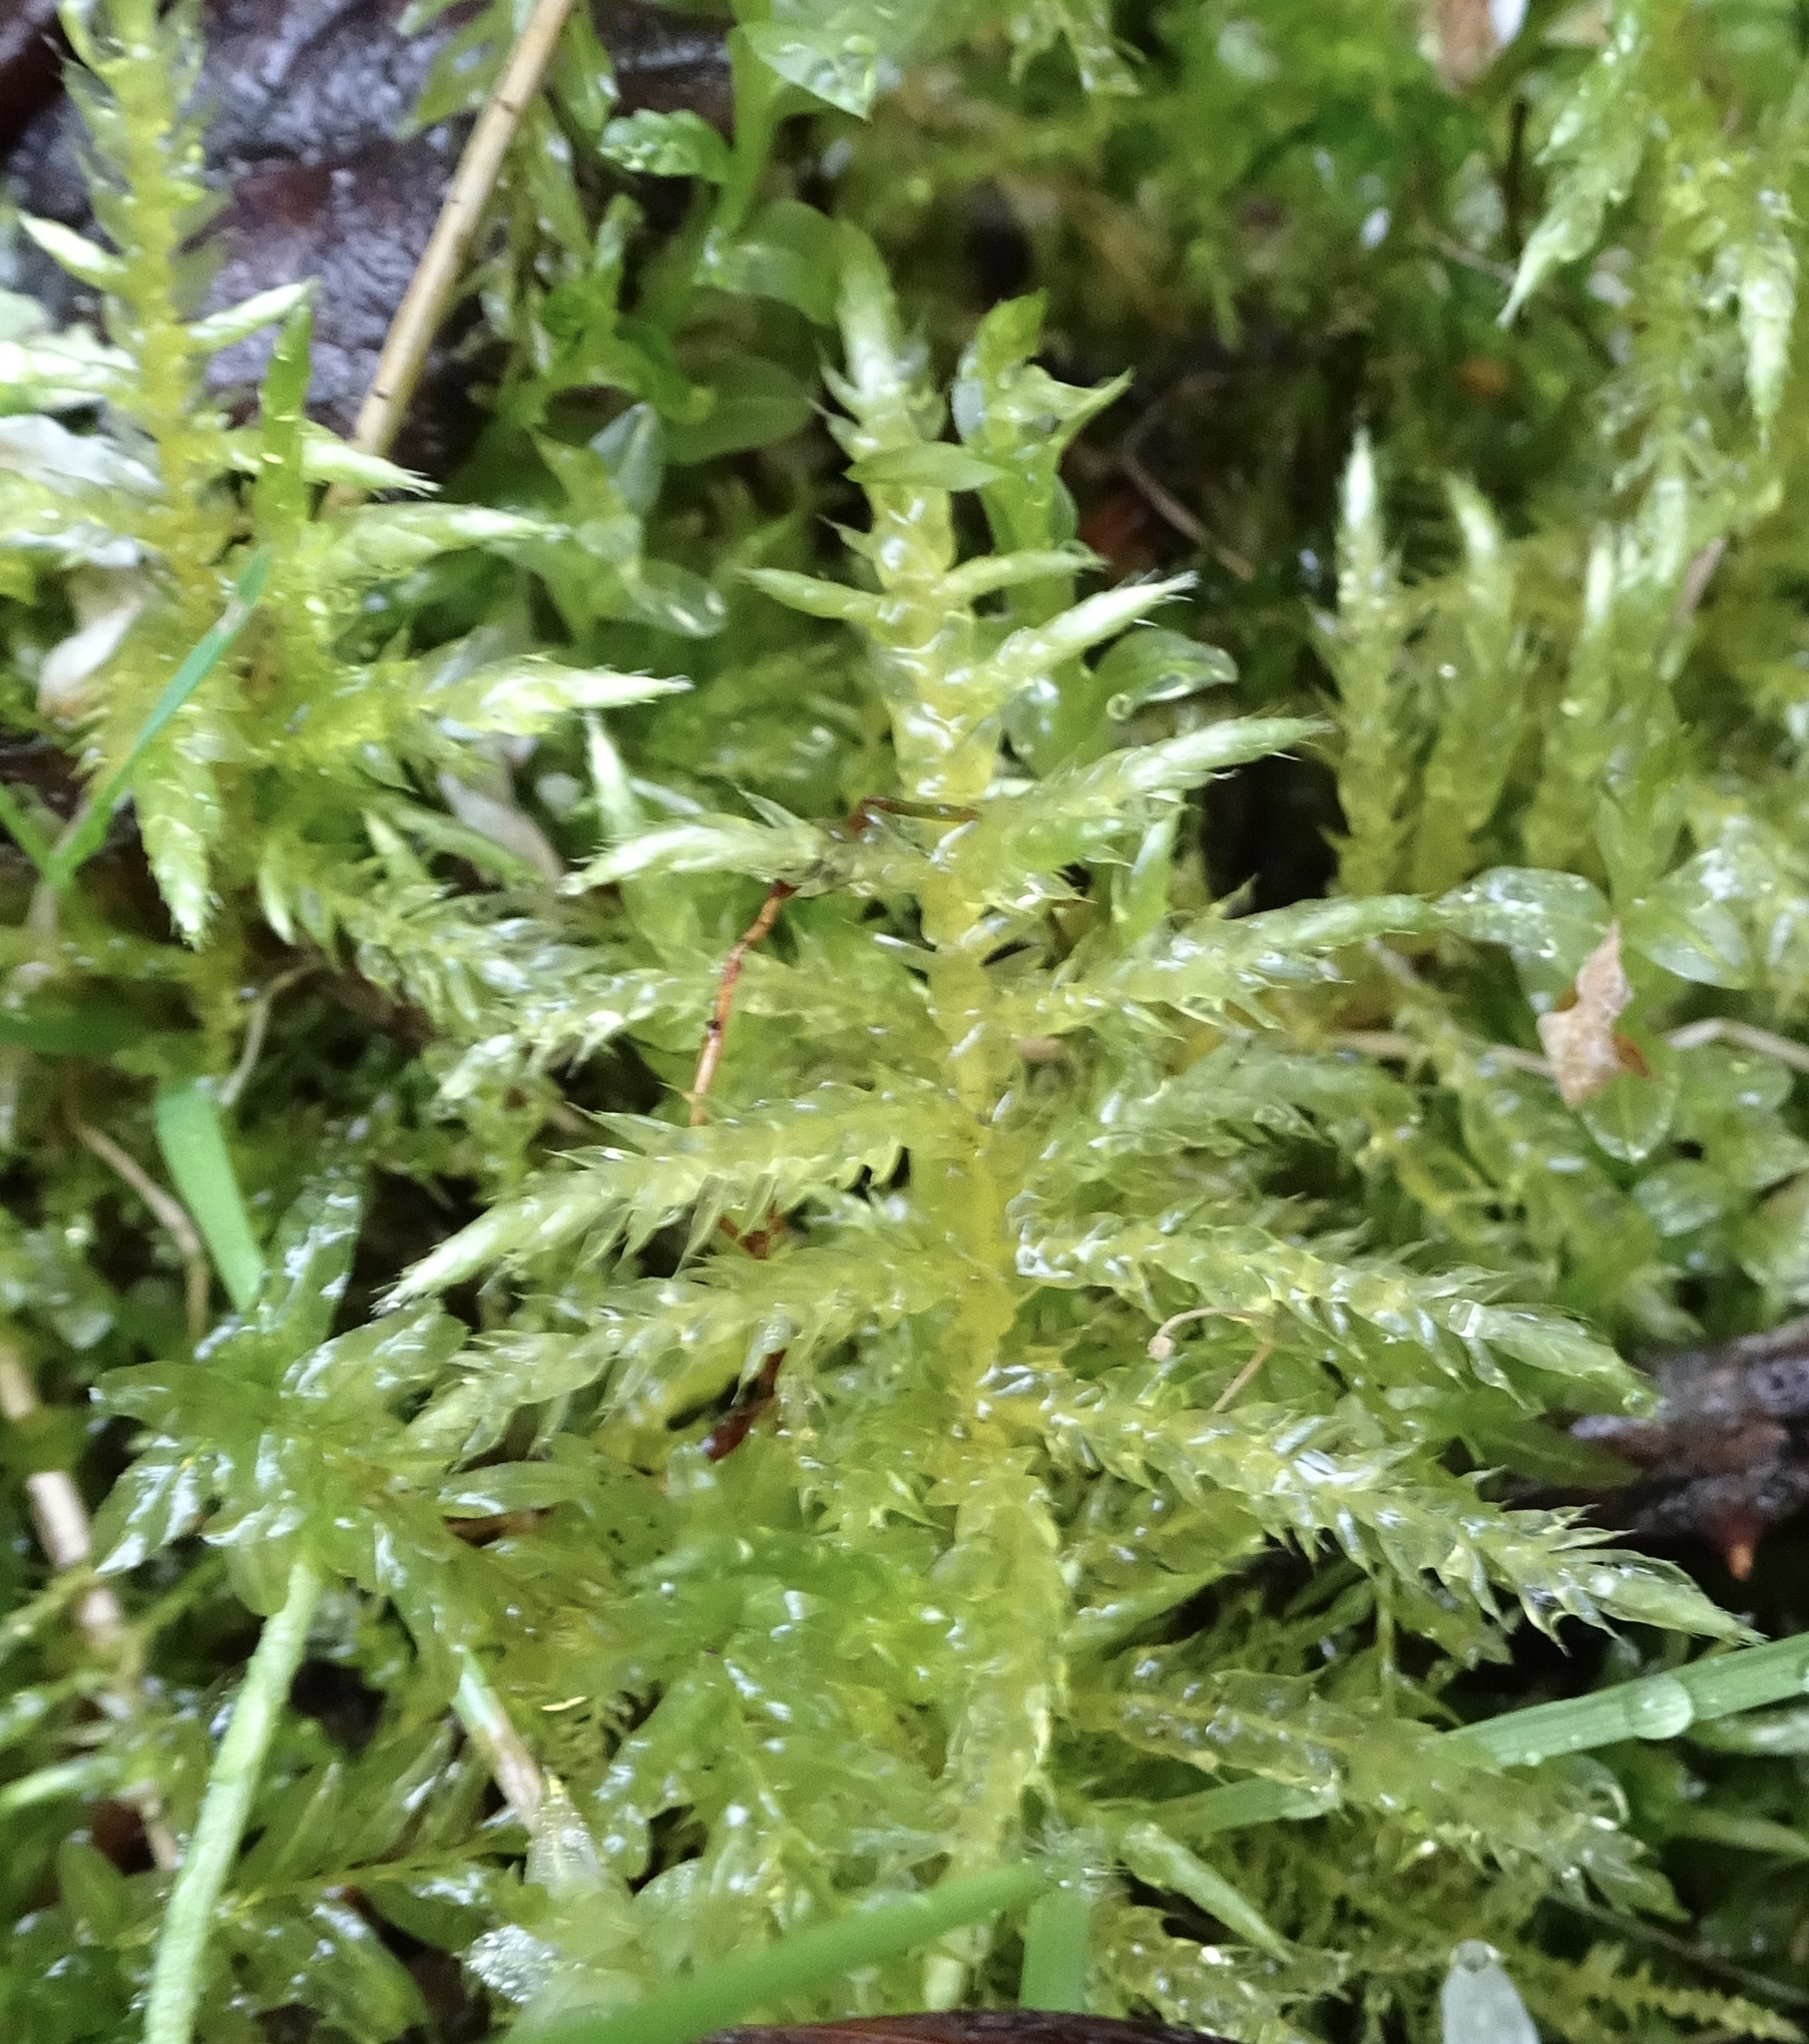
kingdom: Plantae
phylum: Bryophyta
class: Bryopsida
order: Hypnales
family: Brachytheciaceae
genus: Cirriphyllum
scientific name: Cirriphyllum piliferum
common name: Hair-pointed moss
